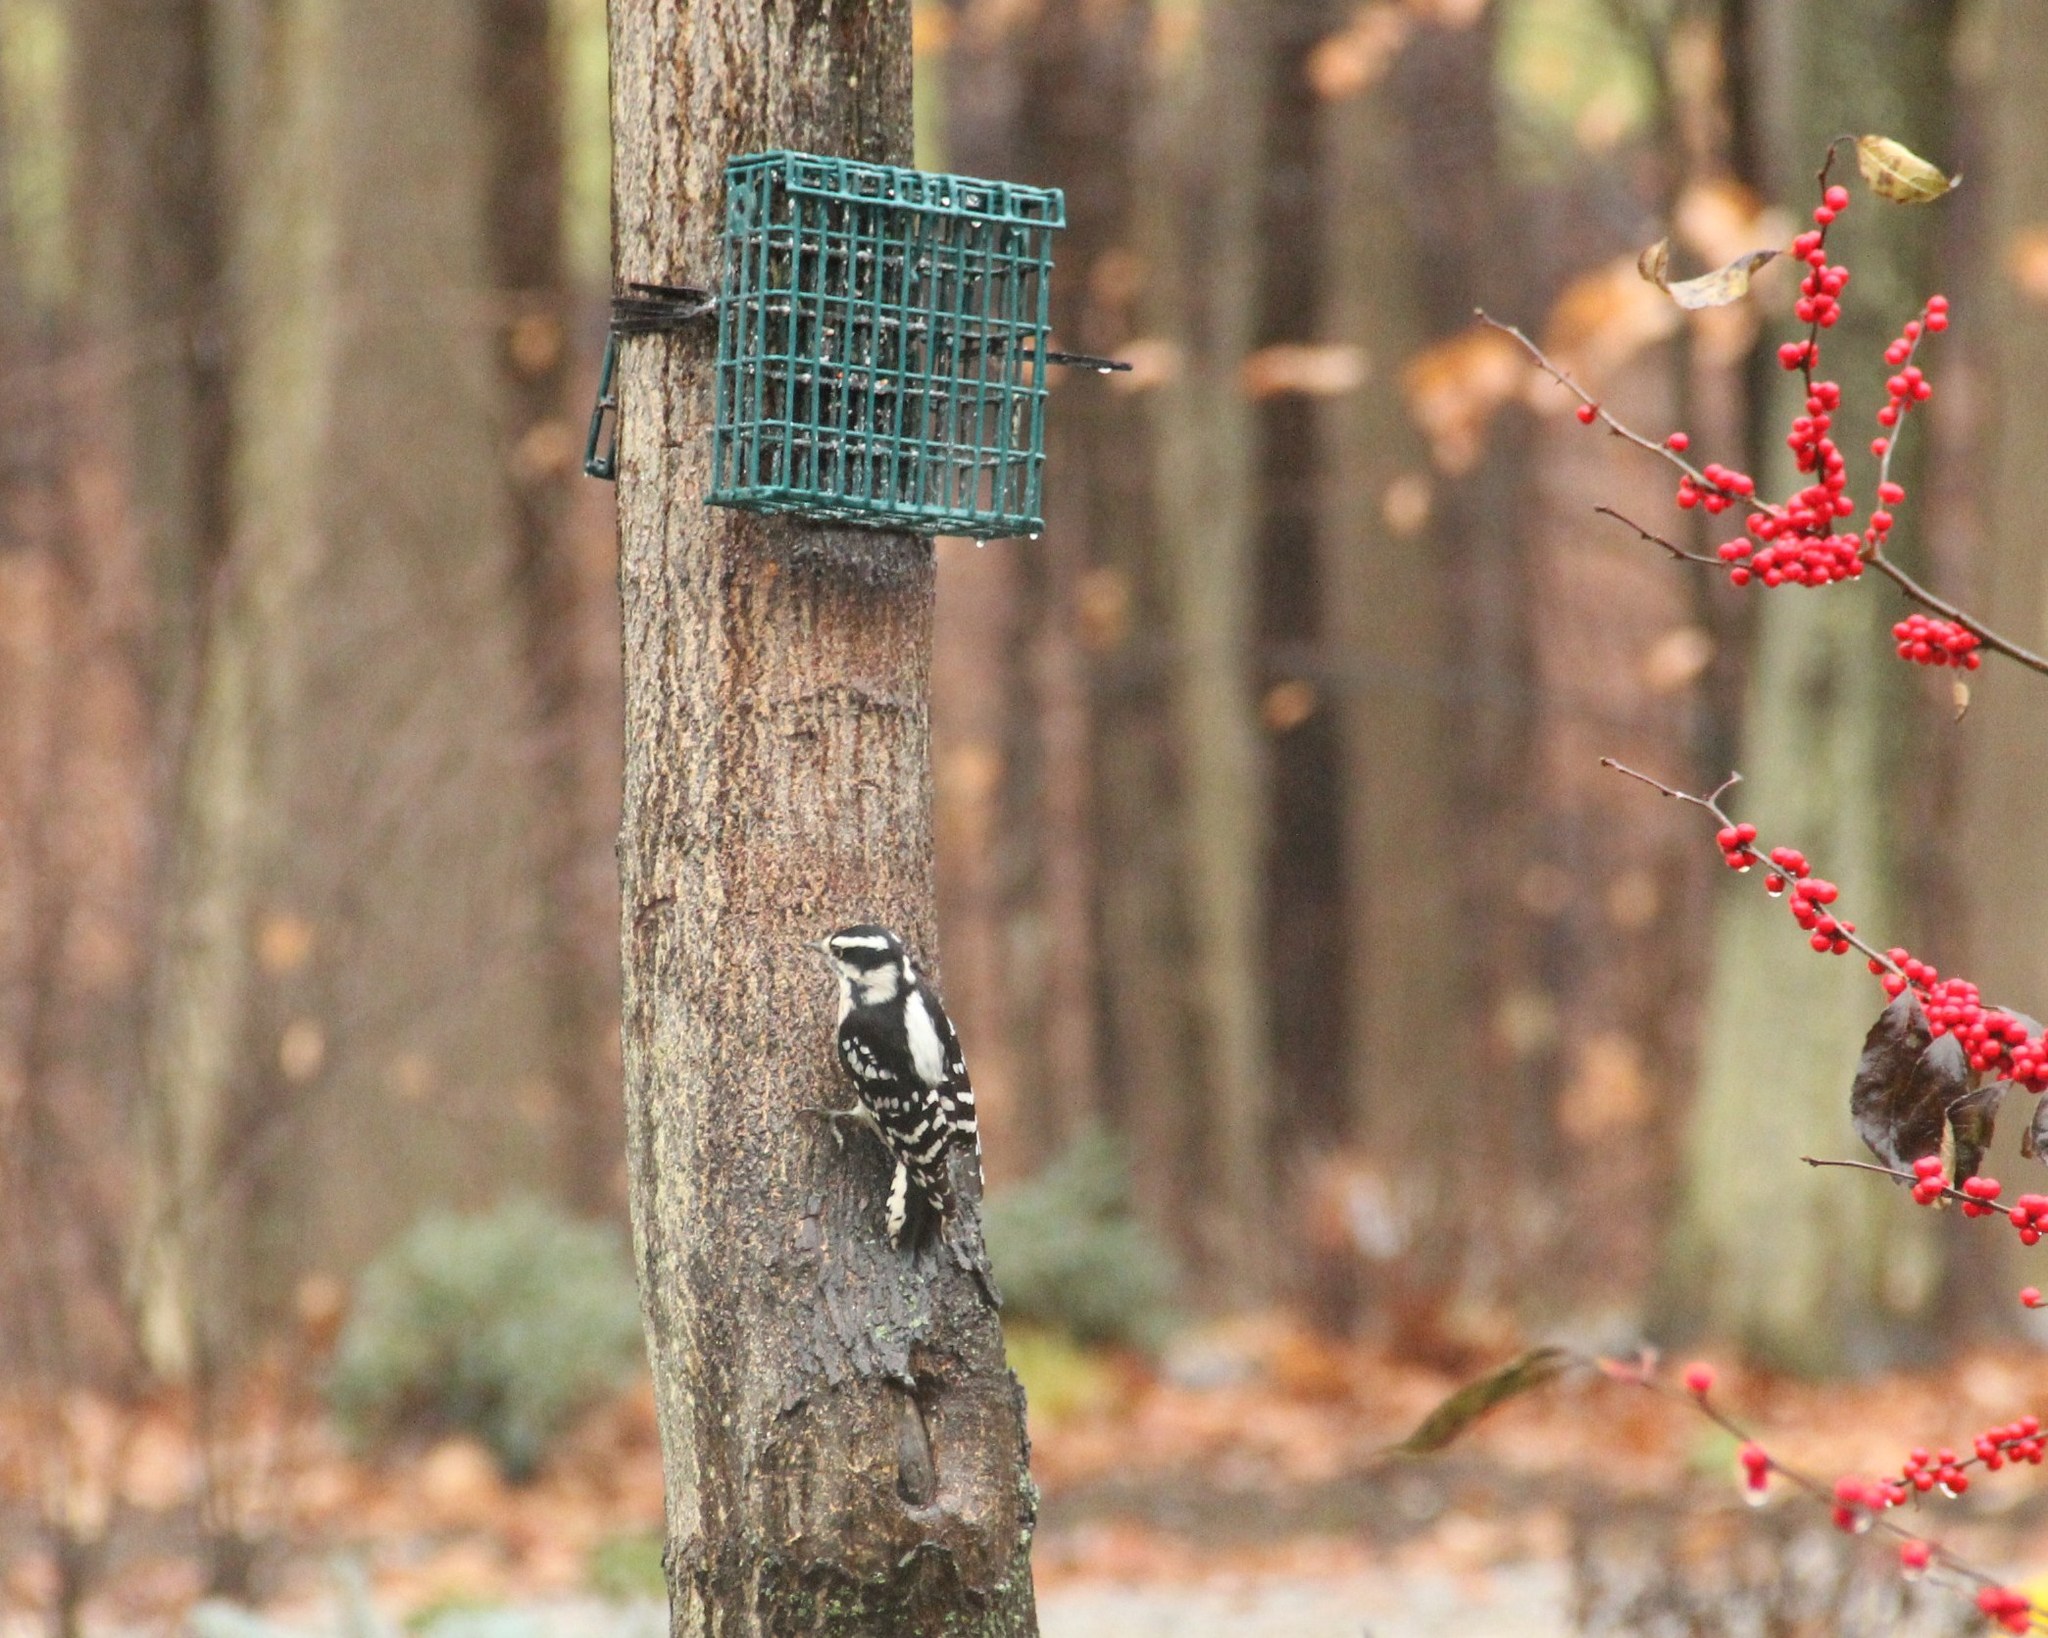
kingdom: Animalia
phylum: Chordata
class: Aves
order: Piciformes
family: Picidae
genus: Dryobates
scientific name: Dryobates pubescens
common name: Downy woodpecker
